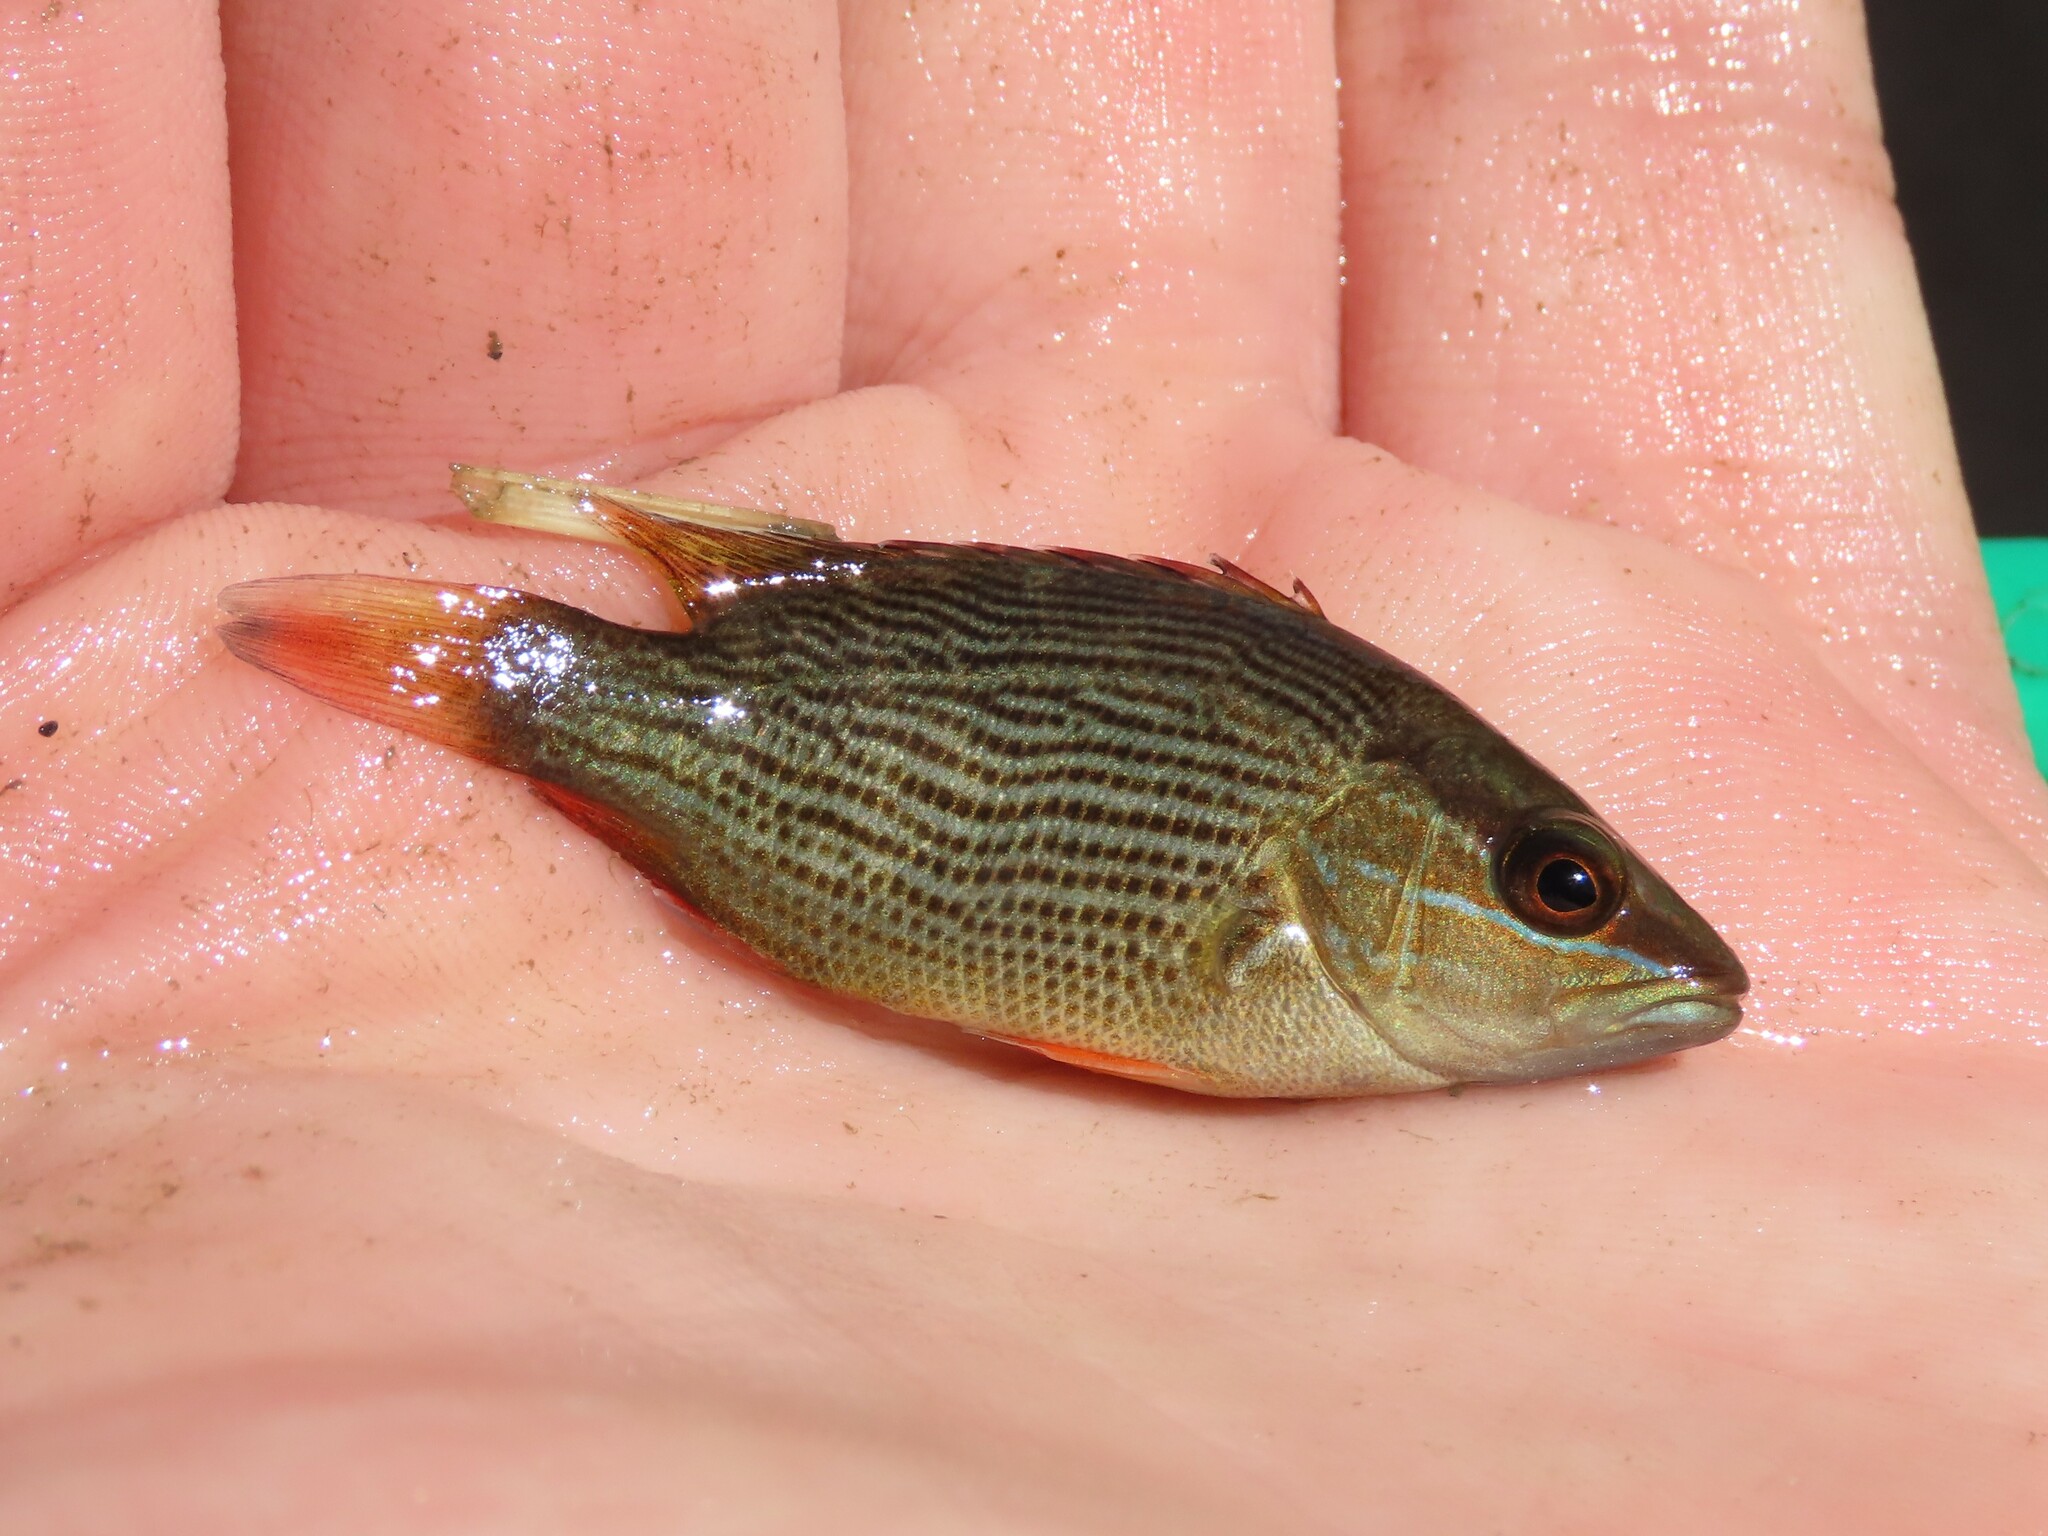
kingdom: Animalia
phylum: Chordata
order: Perciformes
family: Lutjanidae
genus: Lutjanus
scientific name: Lutjanus griseus
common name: Gray snapper
